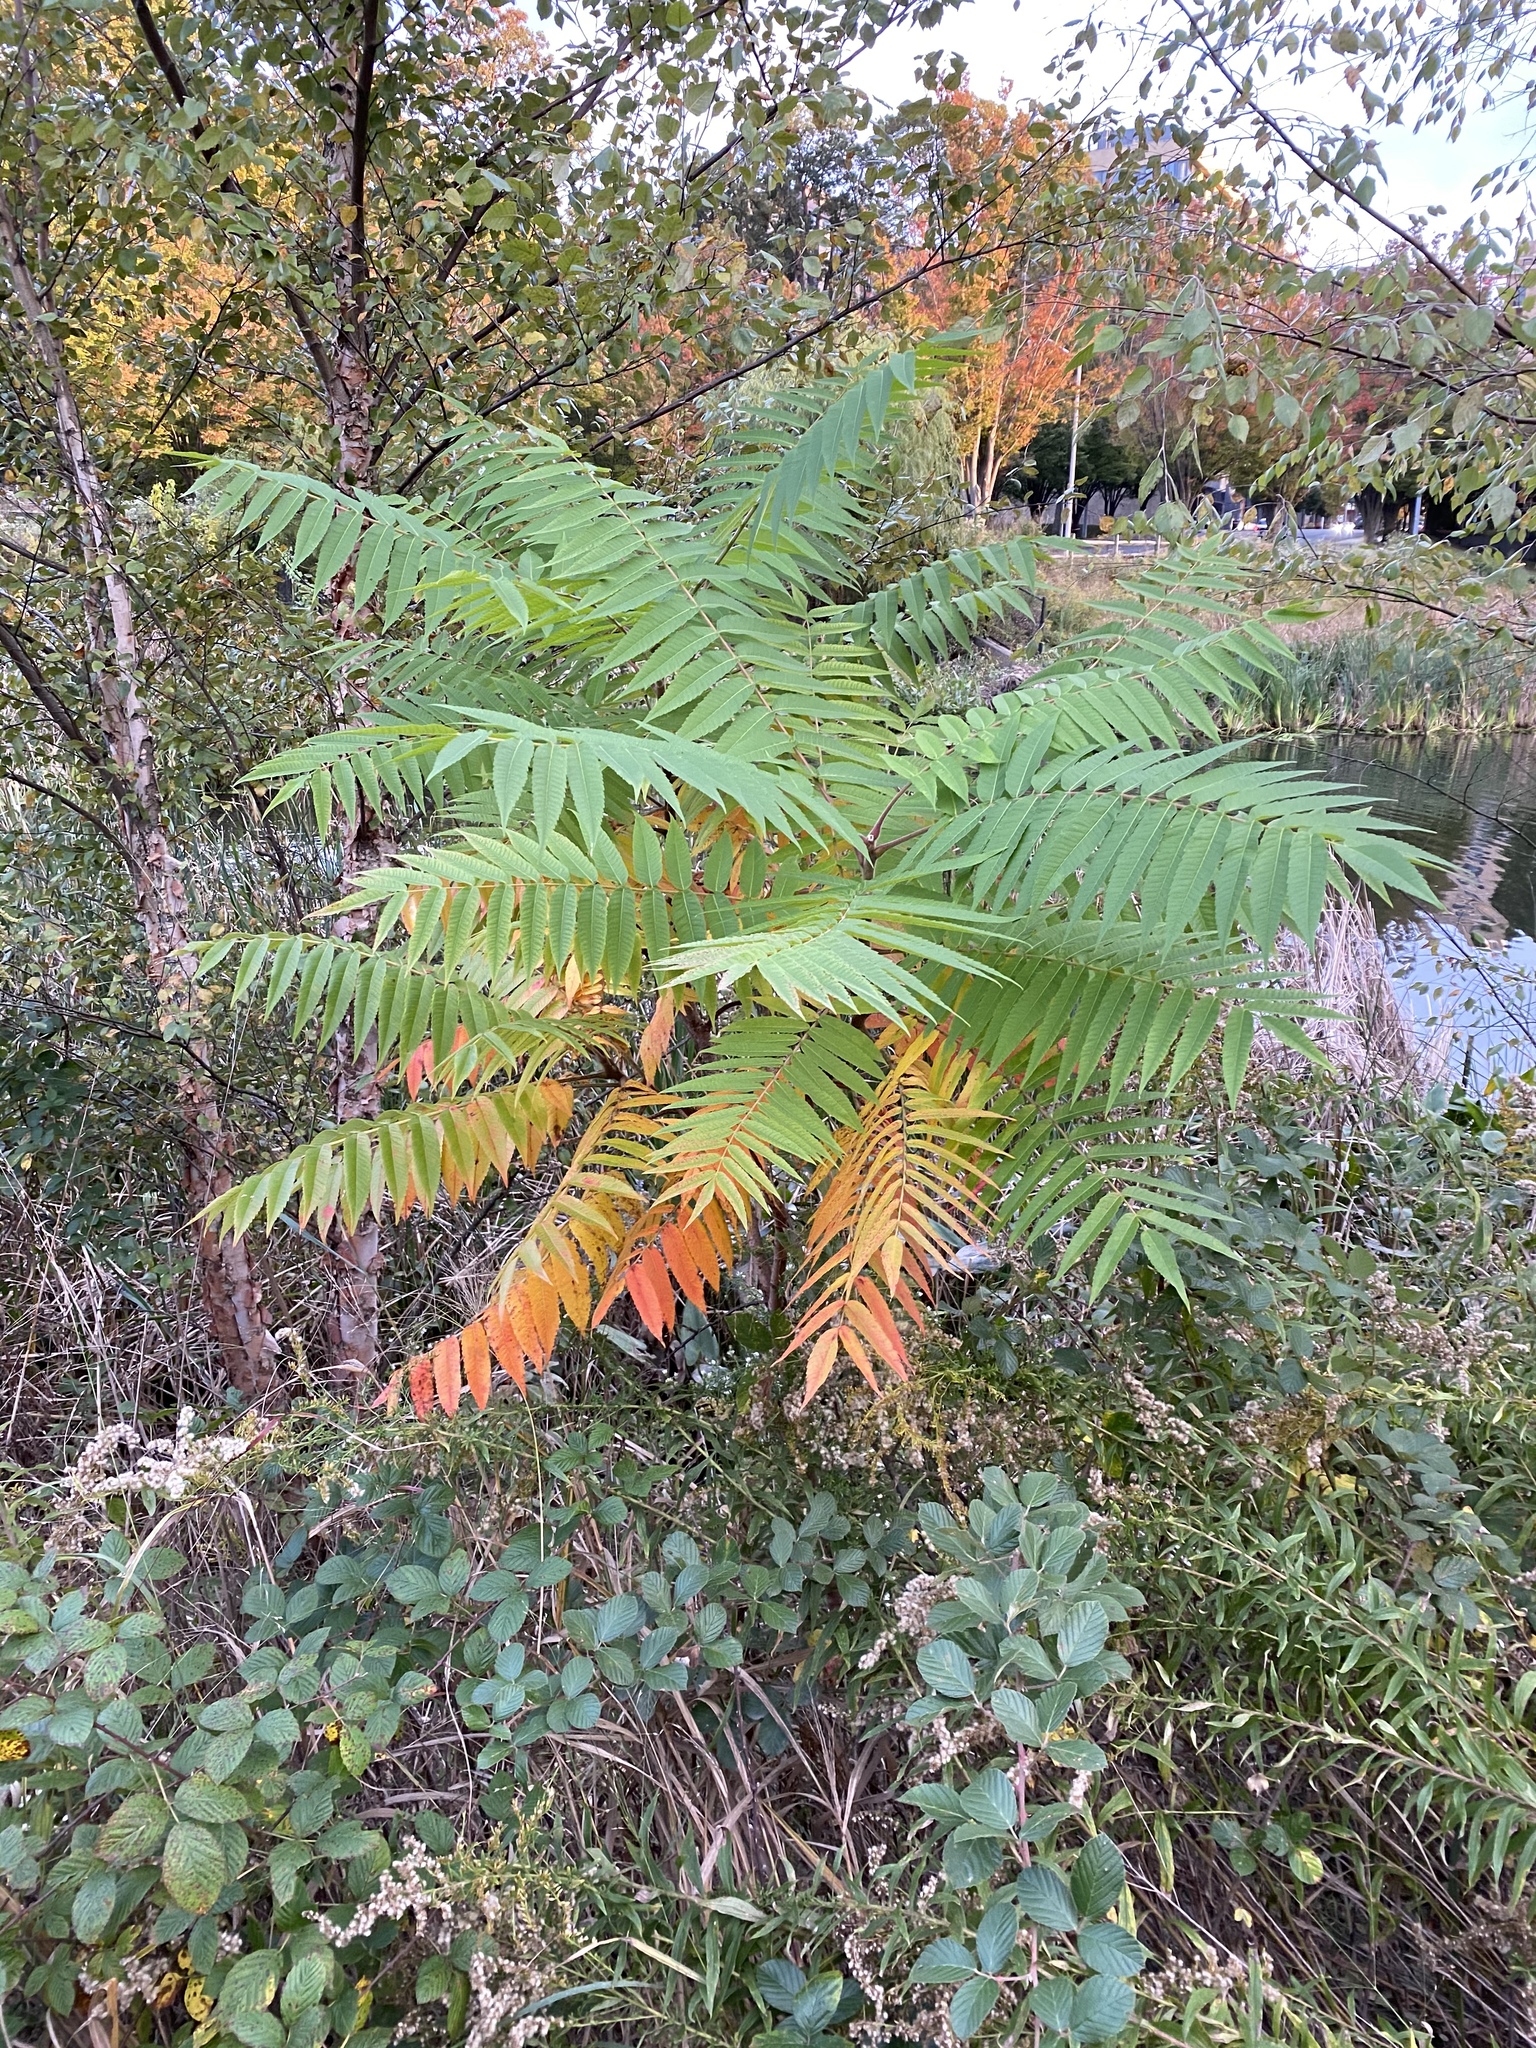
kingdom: Plantae
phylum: Tracheophyta
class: Magnoliopsida
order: Sapindales
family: Anacardiaceae
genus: Rhus
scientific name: Rhus typhina
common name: Staghorn sumac
